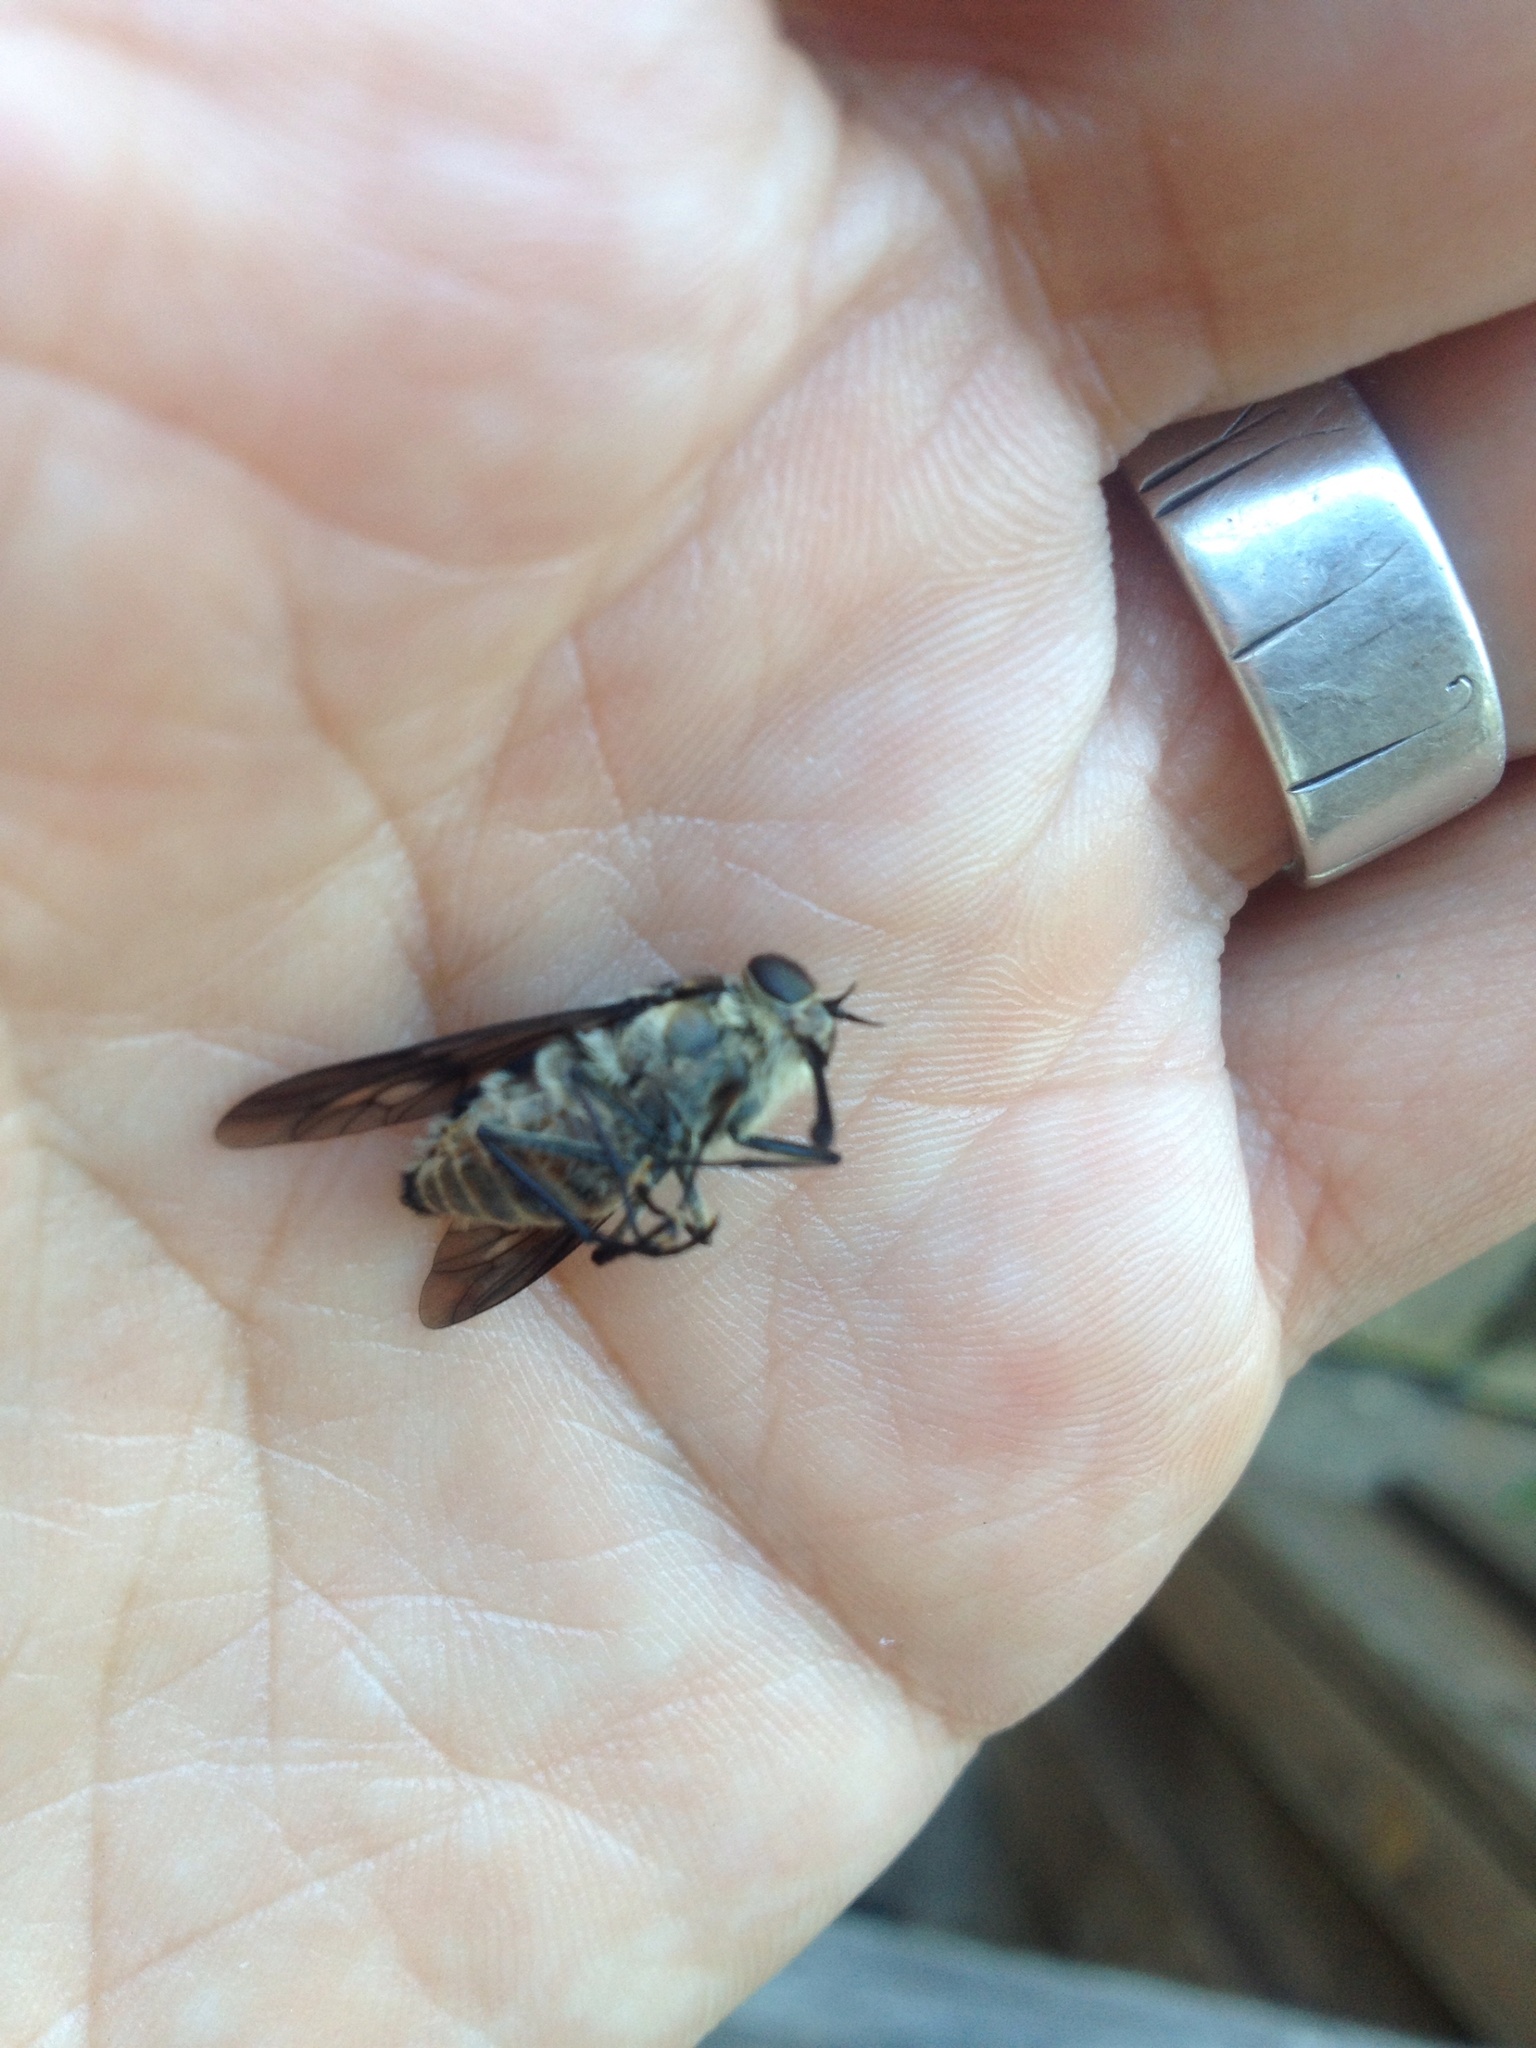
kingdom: Animalia
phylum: Arthropoda
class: Insecta
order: Diptera
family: Tabanidae
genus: Scaptia
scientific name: Scaptia
